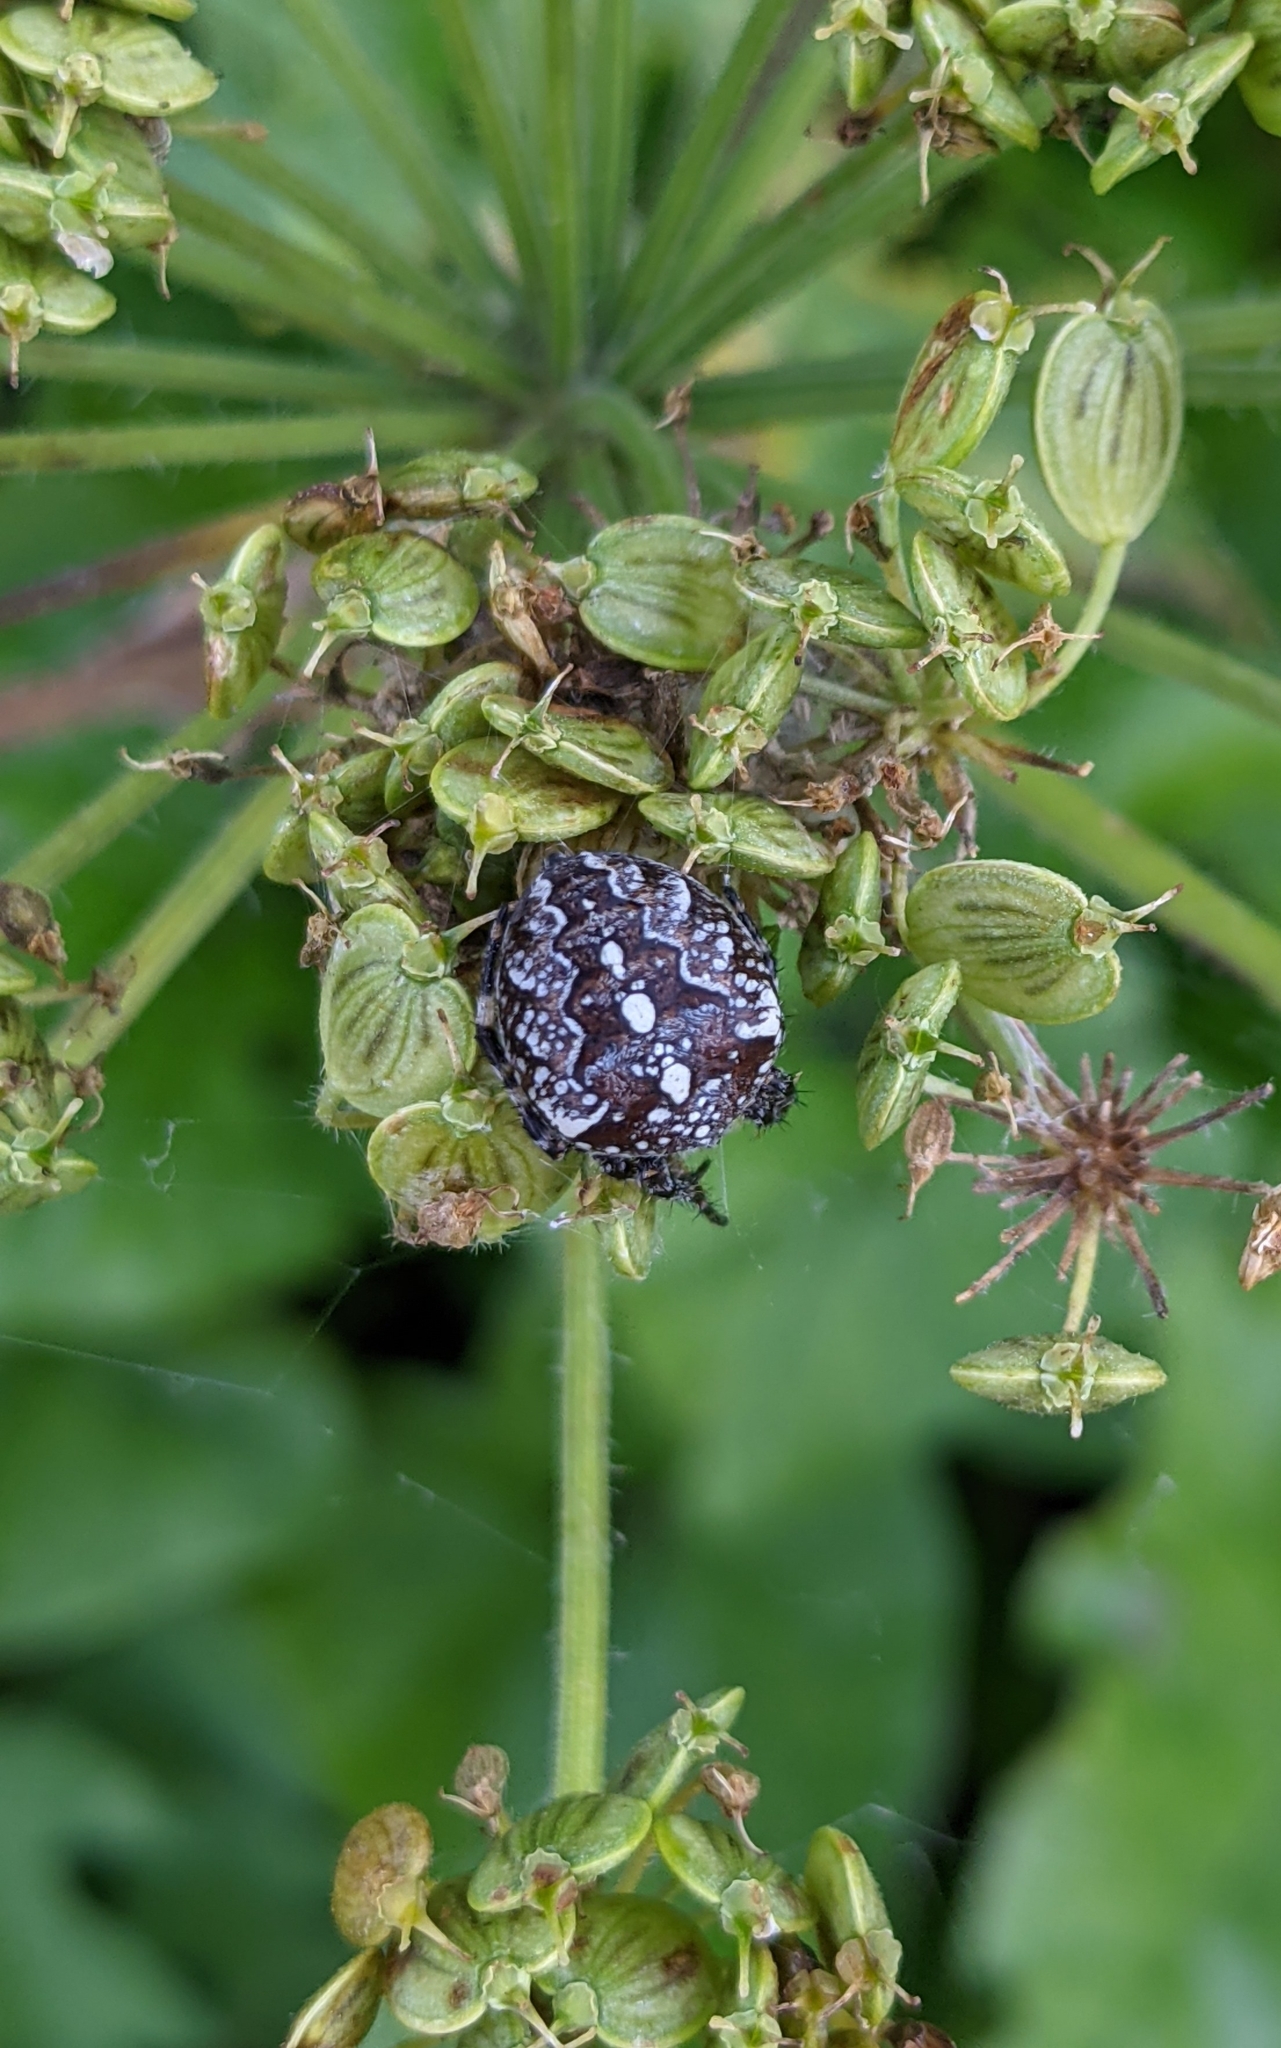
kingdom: Animalia
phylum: Arthropoda
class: Arachnida
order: Araneae
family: Araneidae
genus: Araneus
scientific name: Araneus diadematus
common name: Cross orbweaver
